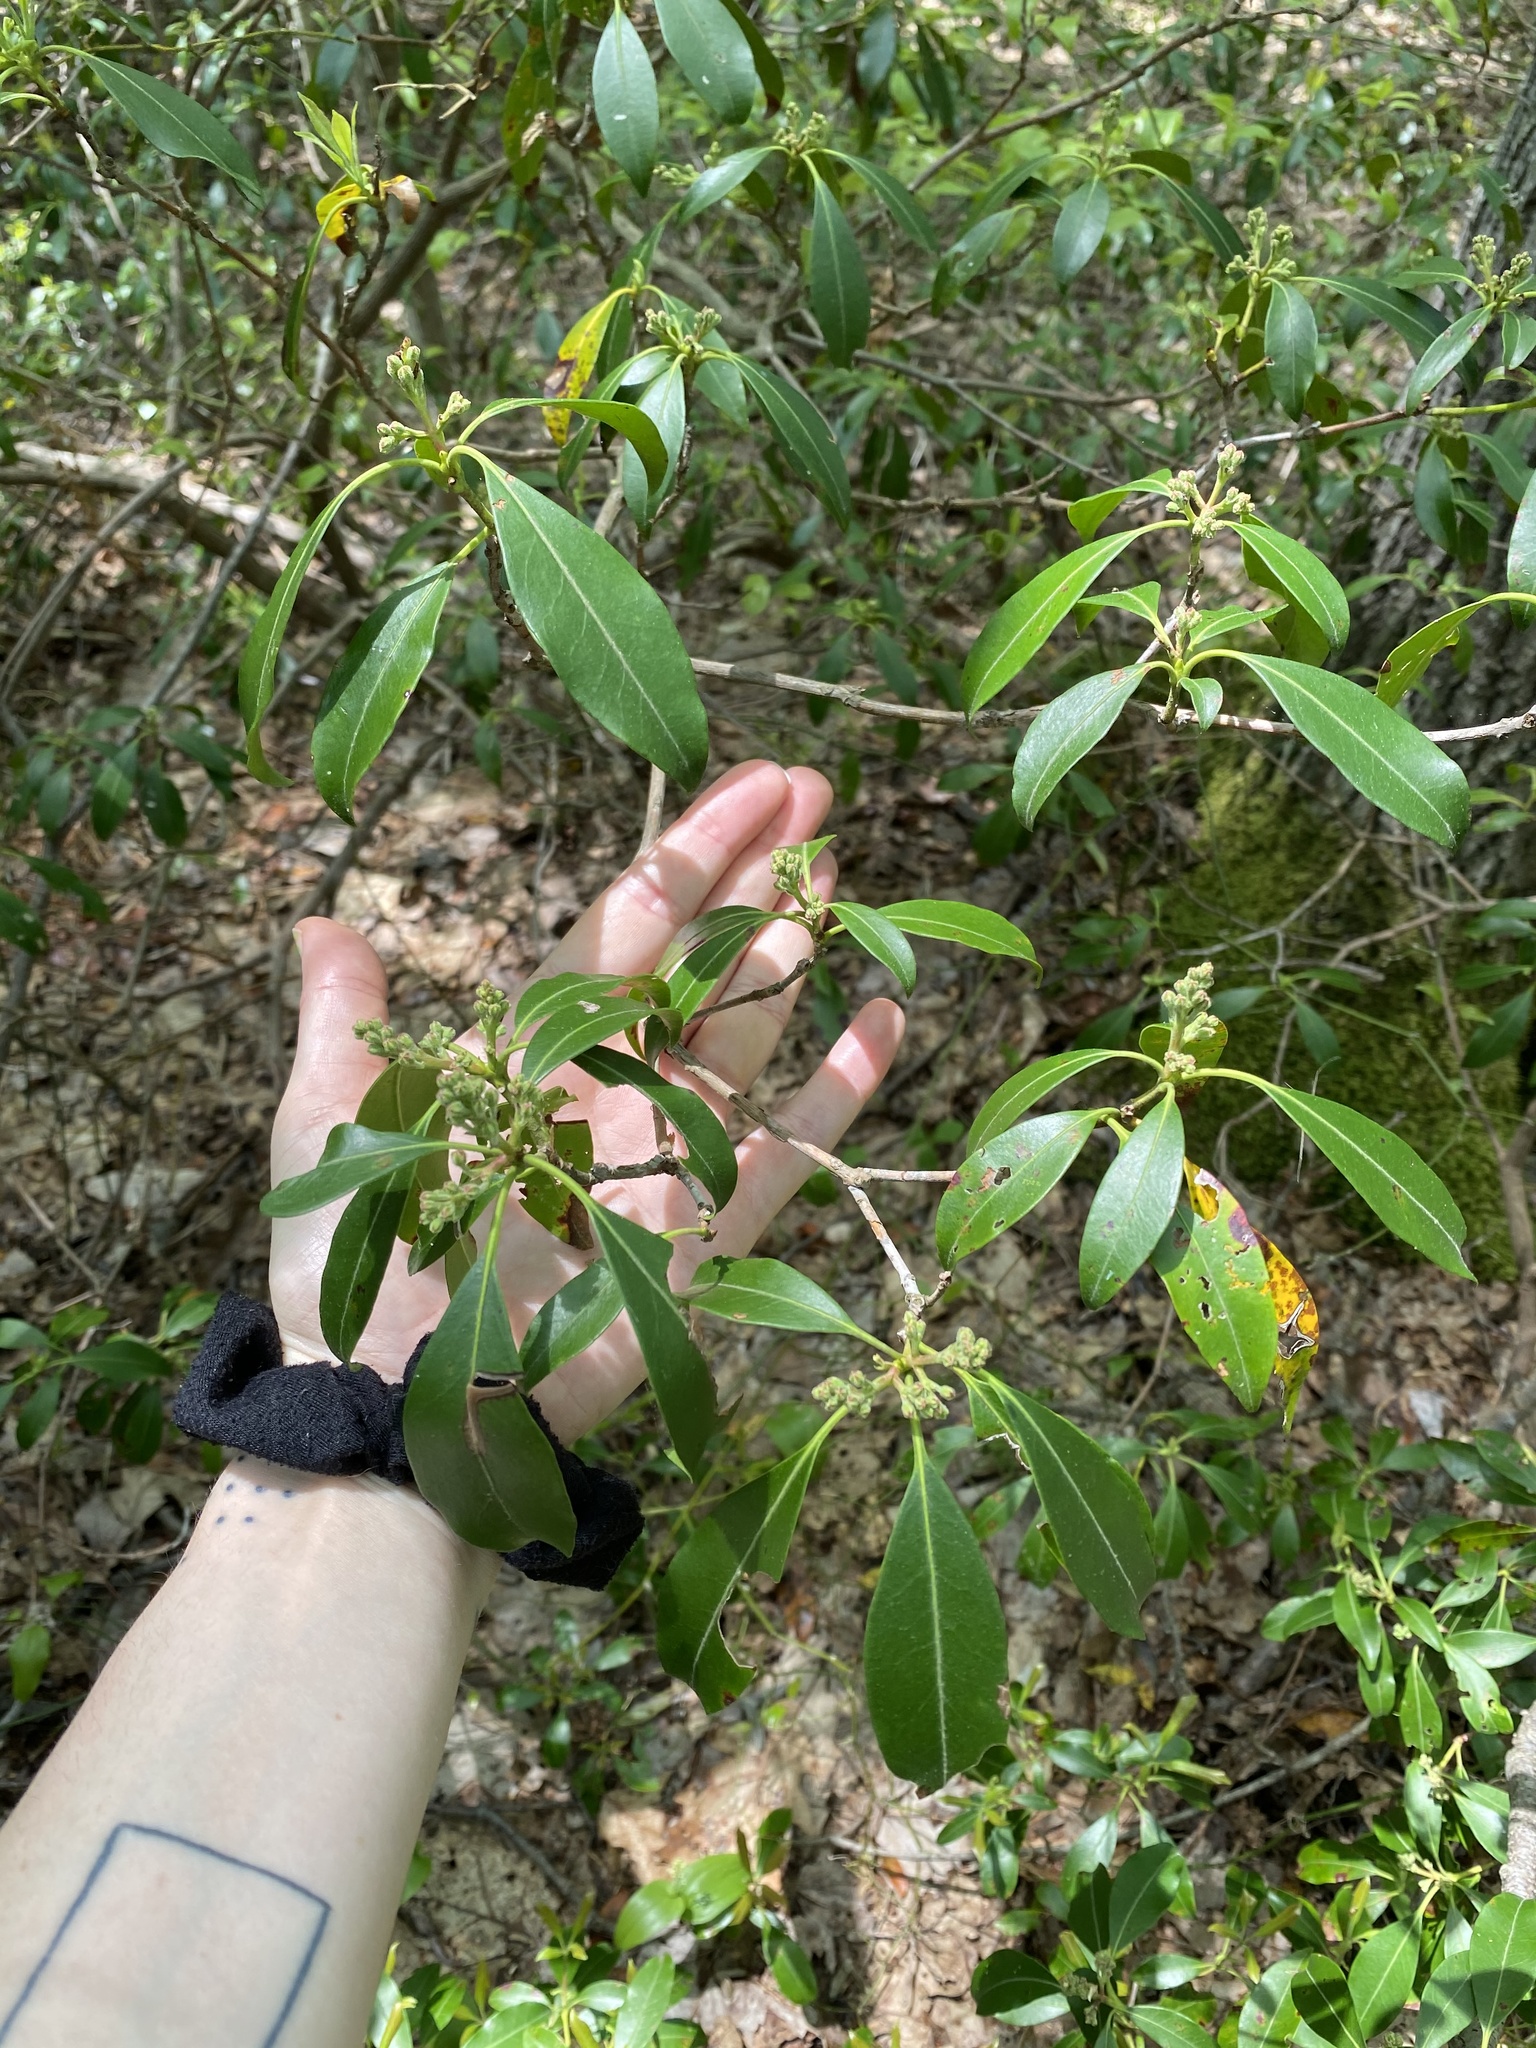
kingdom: Plantae
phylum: Tracheophyta
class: Magnoliopsida
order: Ericales
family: Ericaceae
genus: Kalmia
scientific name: Kalmia latifolia
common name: Mountain-laurel
